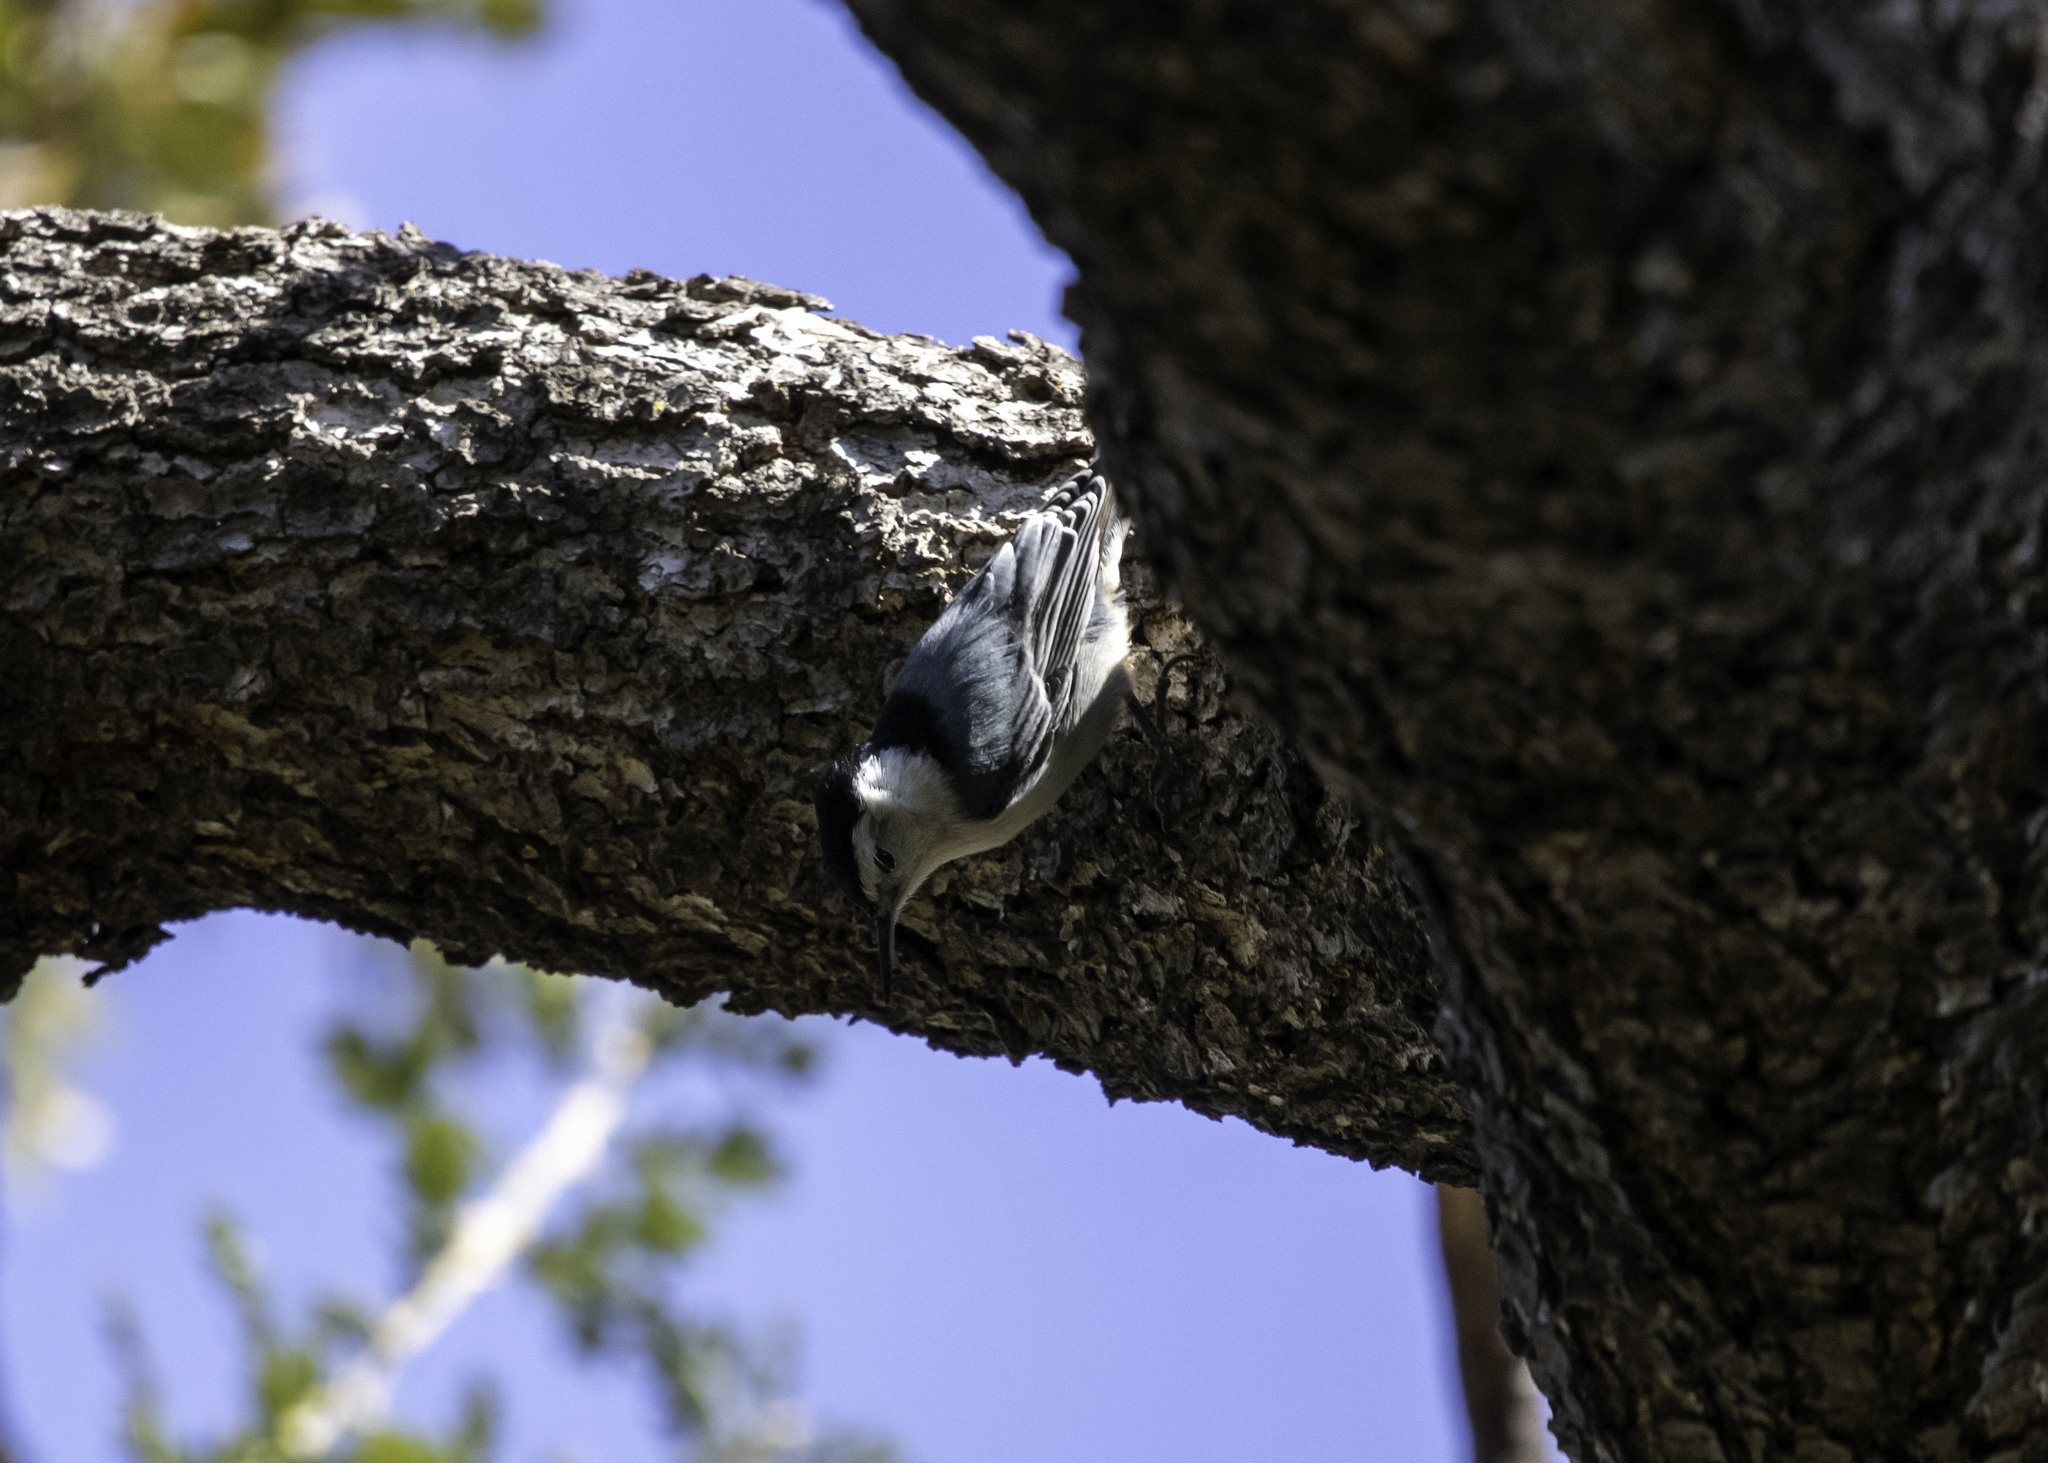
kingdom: Animalia
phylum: Chordata
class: Aves
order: Passeriformes
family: Sittidae
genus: Sitta
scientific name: Sitta carolinensis
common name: White-breasted nuthatch
